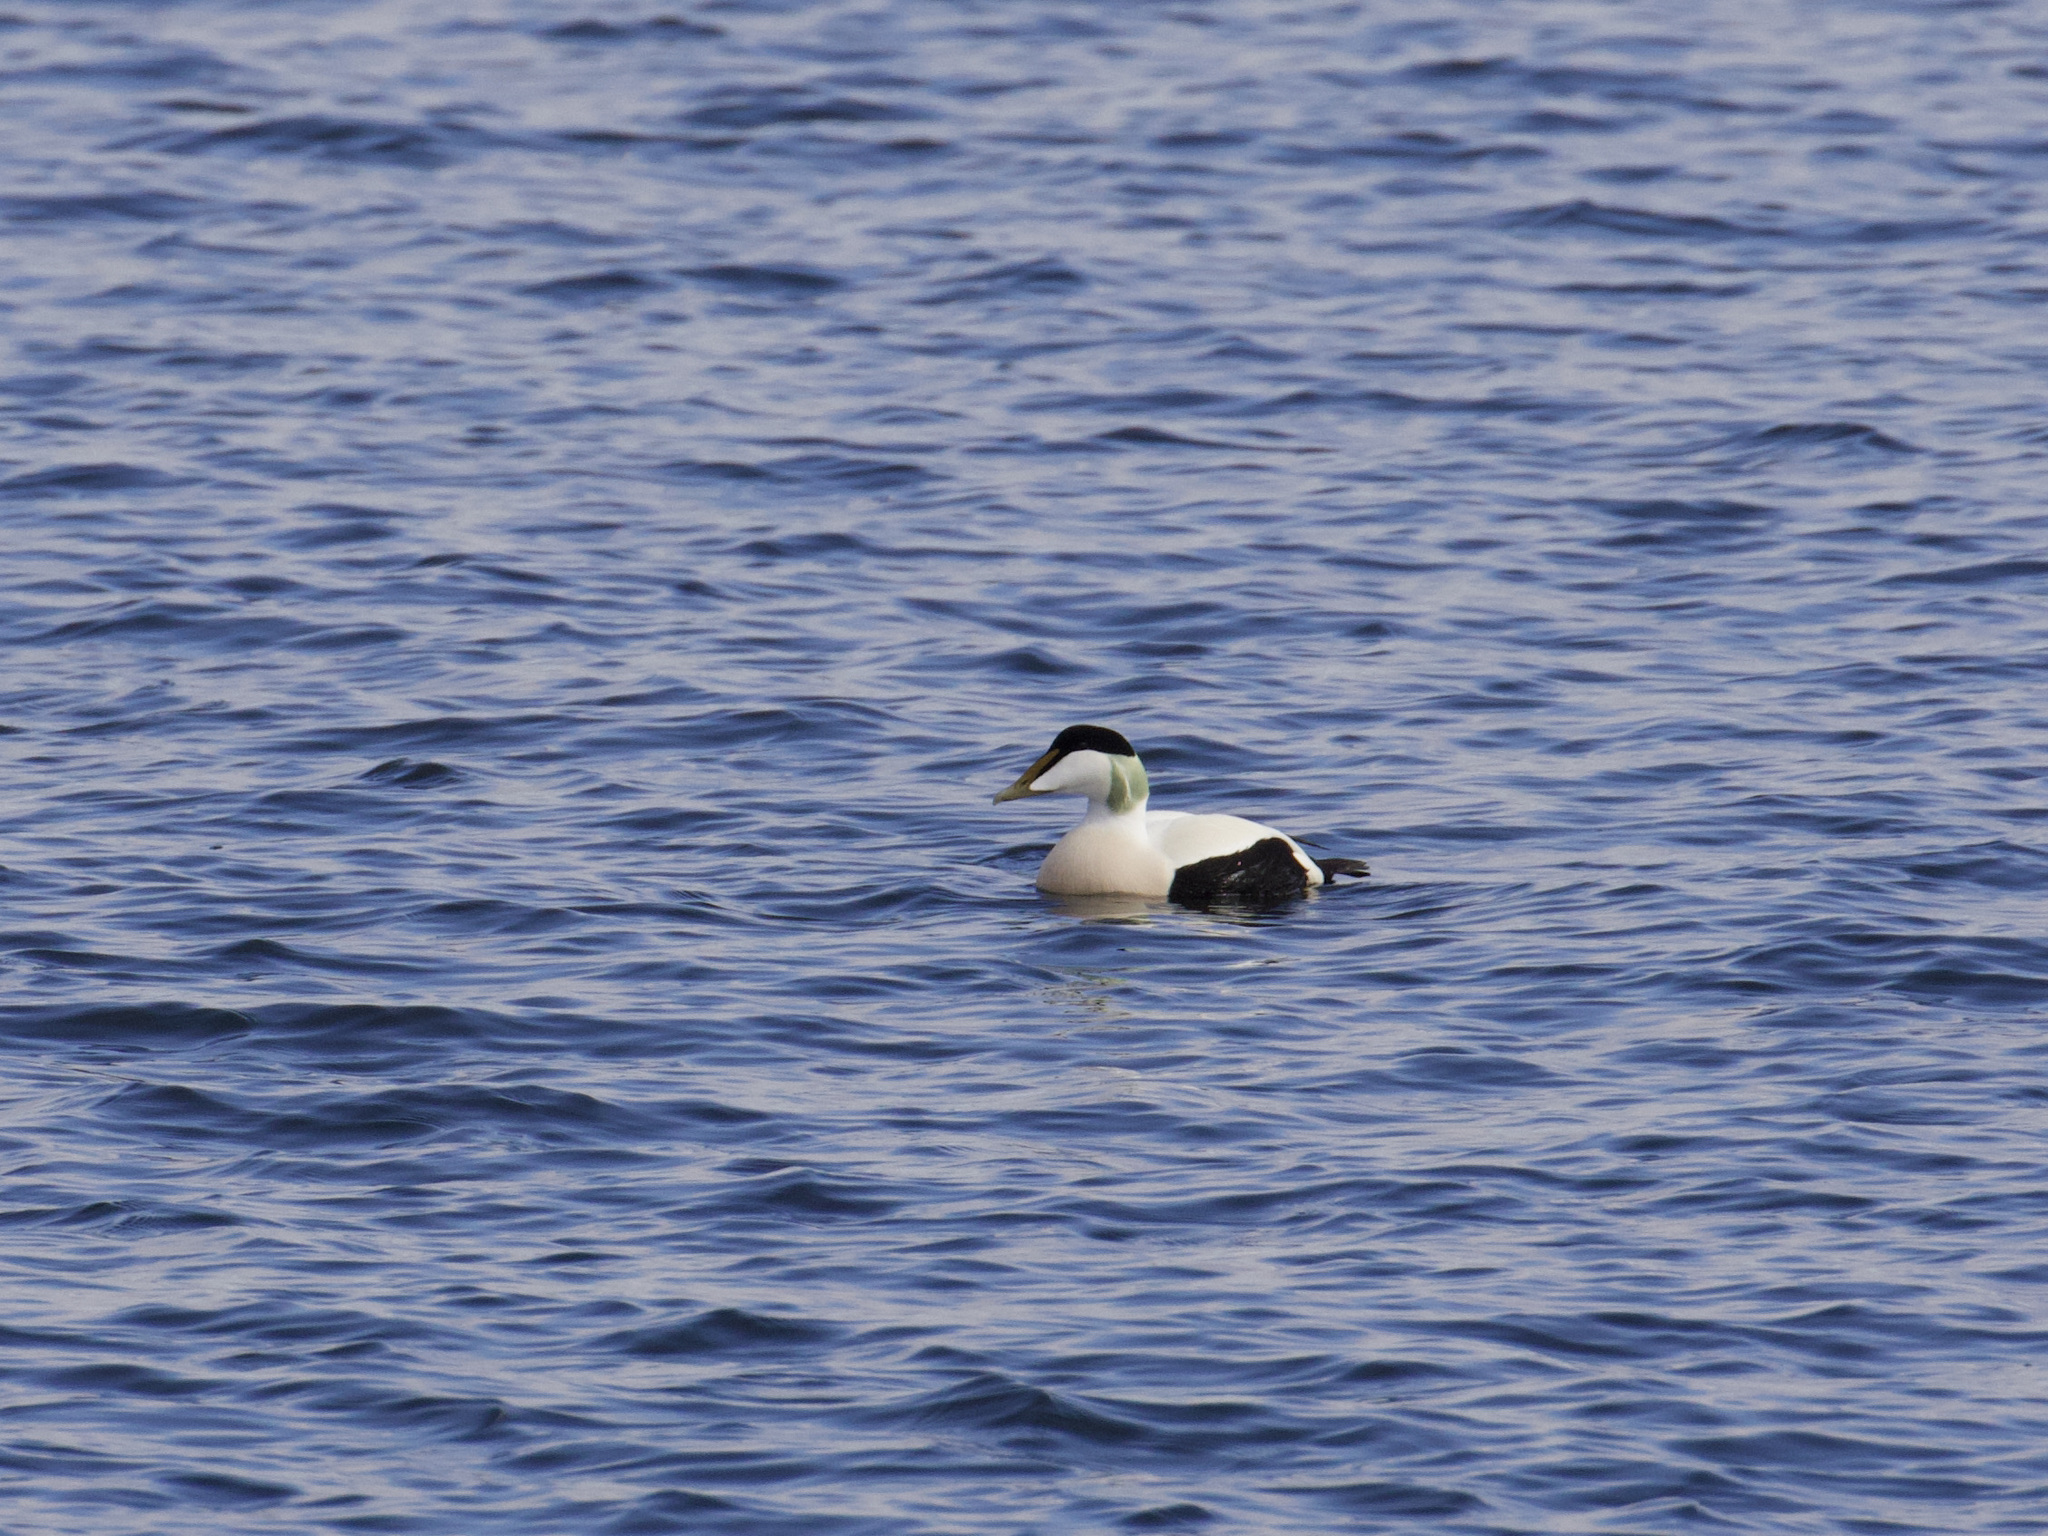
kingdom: Animalia
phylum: Chordata
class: Aves
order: Anseriformes
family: Anatidae
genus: Somateria
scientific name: Somateria mollissima
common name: Common eider
